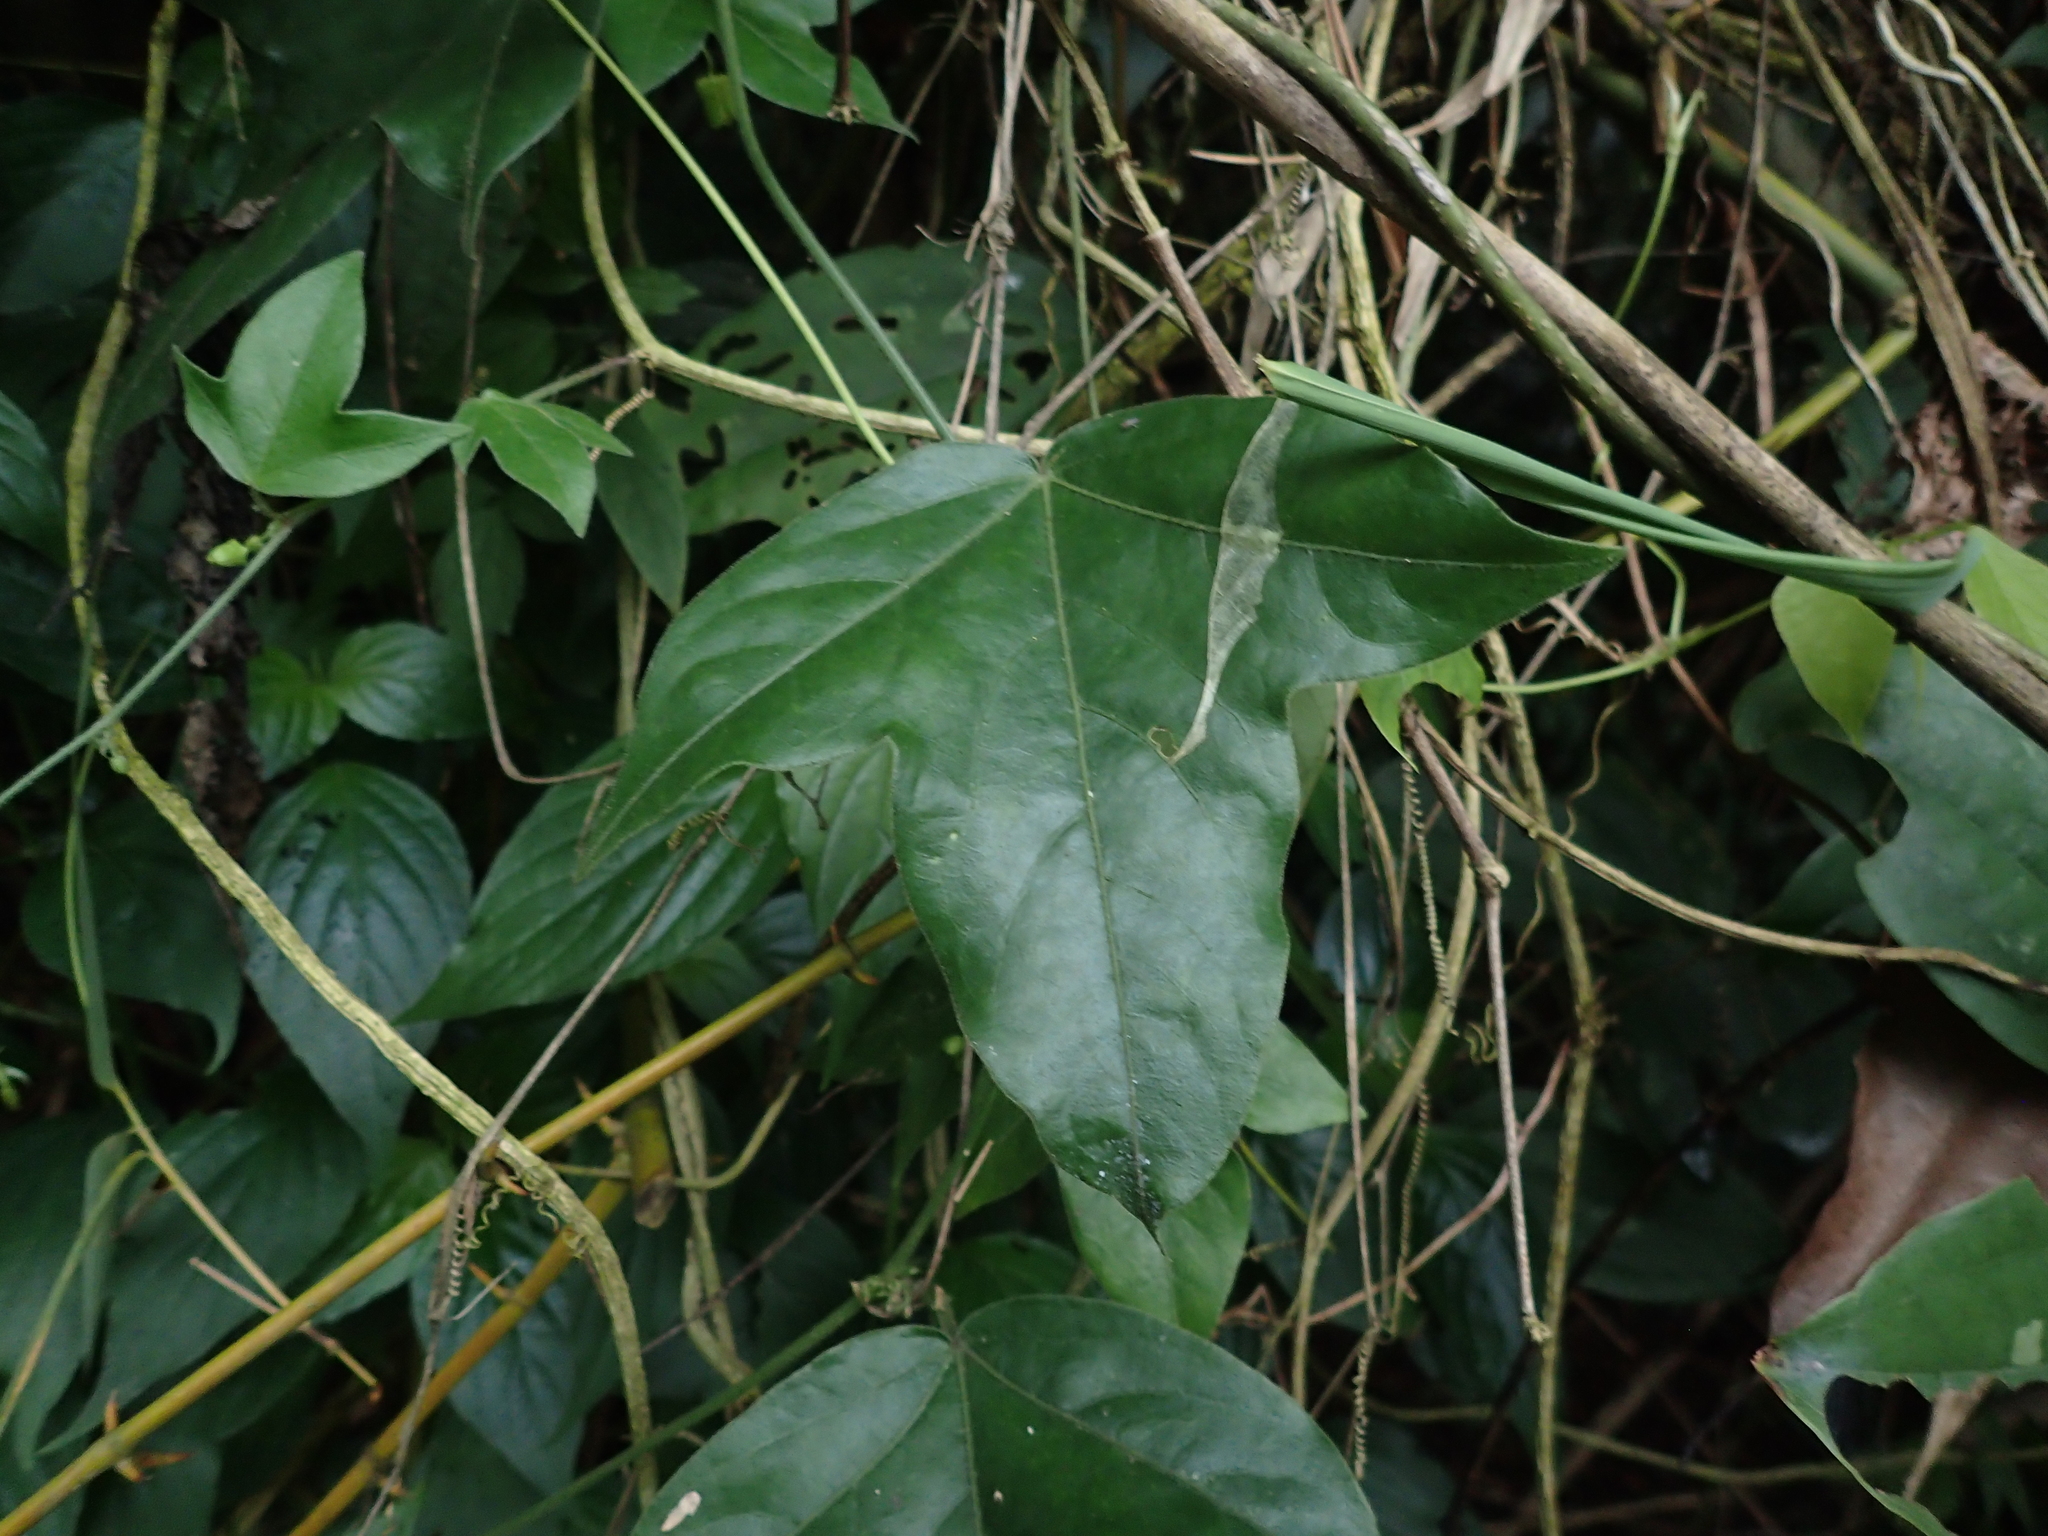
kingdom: Plantae
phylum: Tracheophyta
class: Magnoliopsida
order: Malpighiales
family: Passifloraceae
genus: Passiflora
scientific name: Passiflora suberosa
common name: Wild passionfruit
